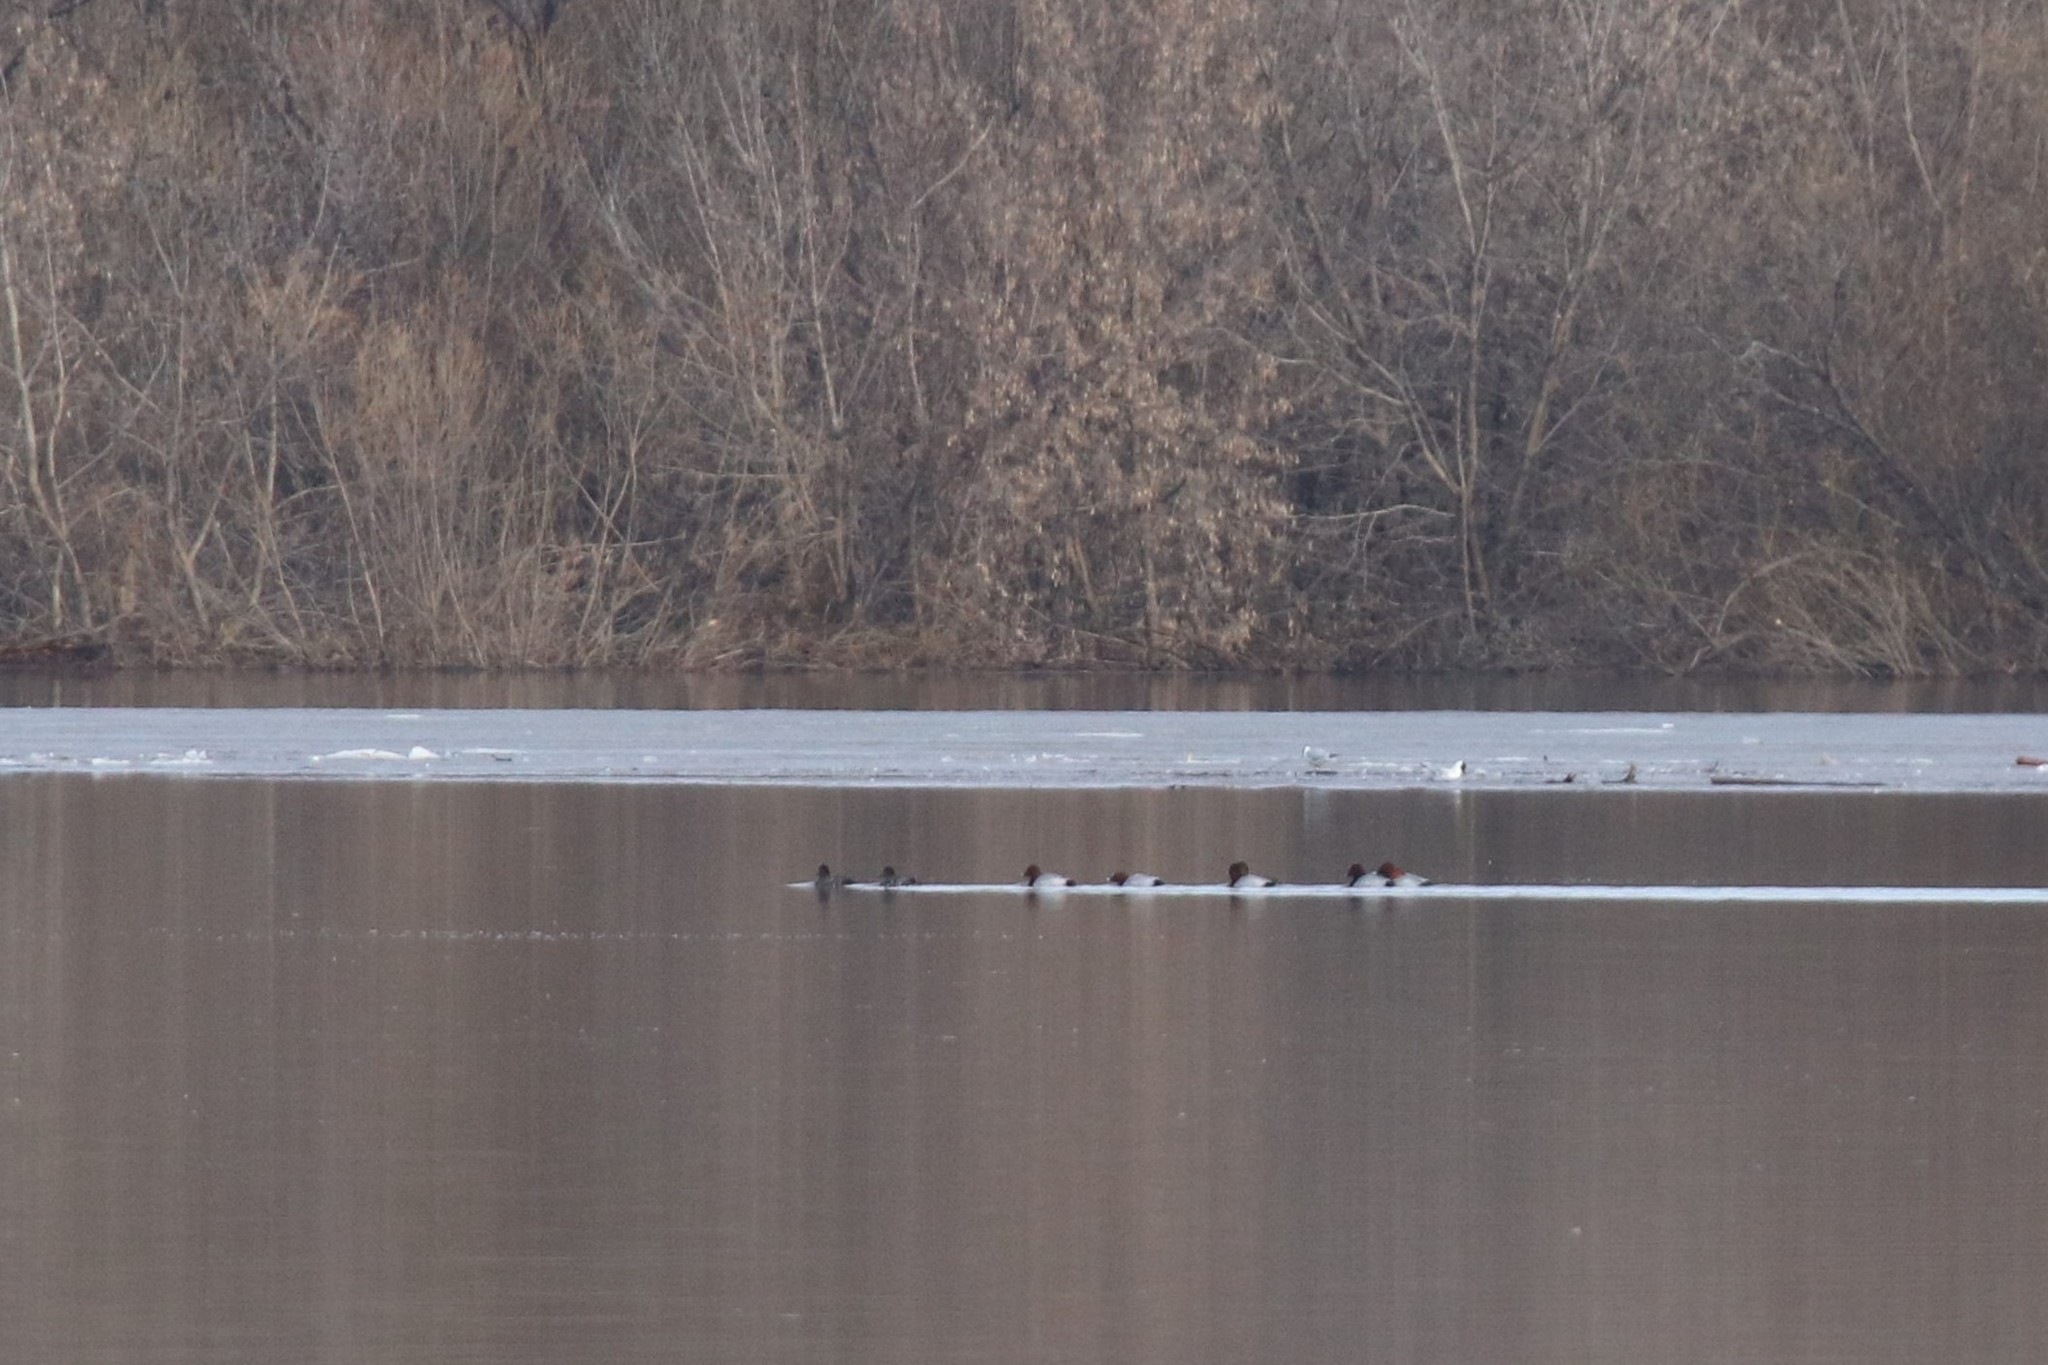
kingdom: Animalia
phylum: Chordata
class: Aves
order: Anseriformes
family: Anatidae
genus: Aythya
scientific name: Aythya ferina
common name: Common pochard
